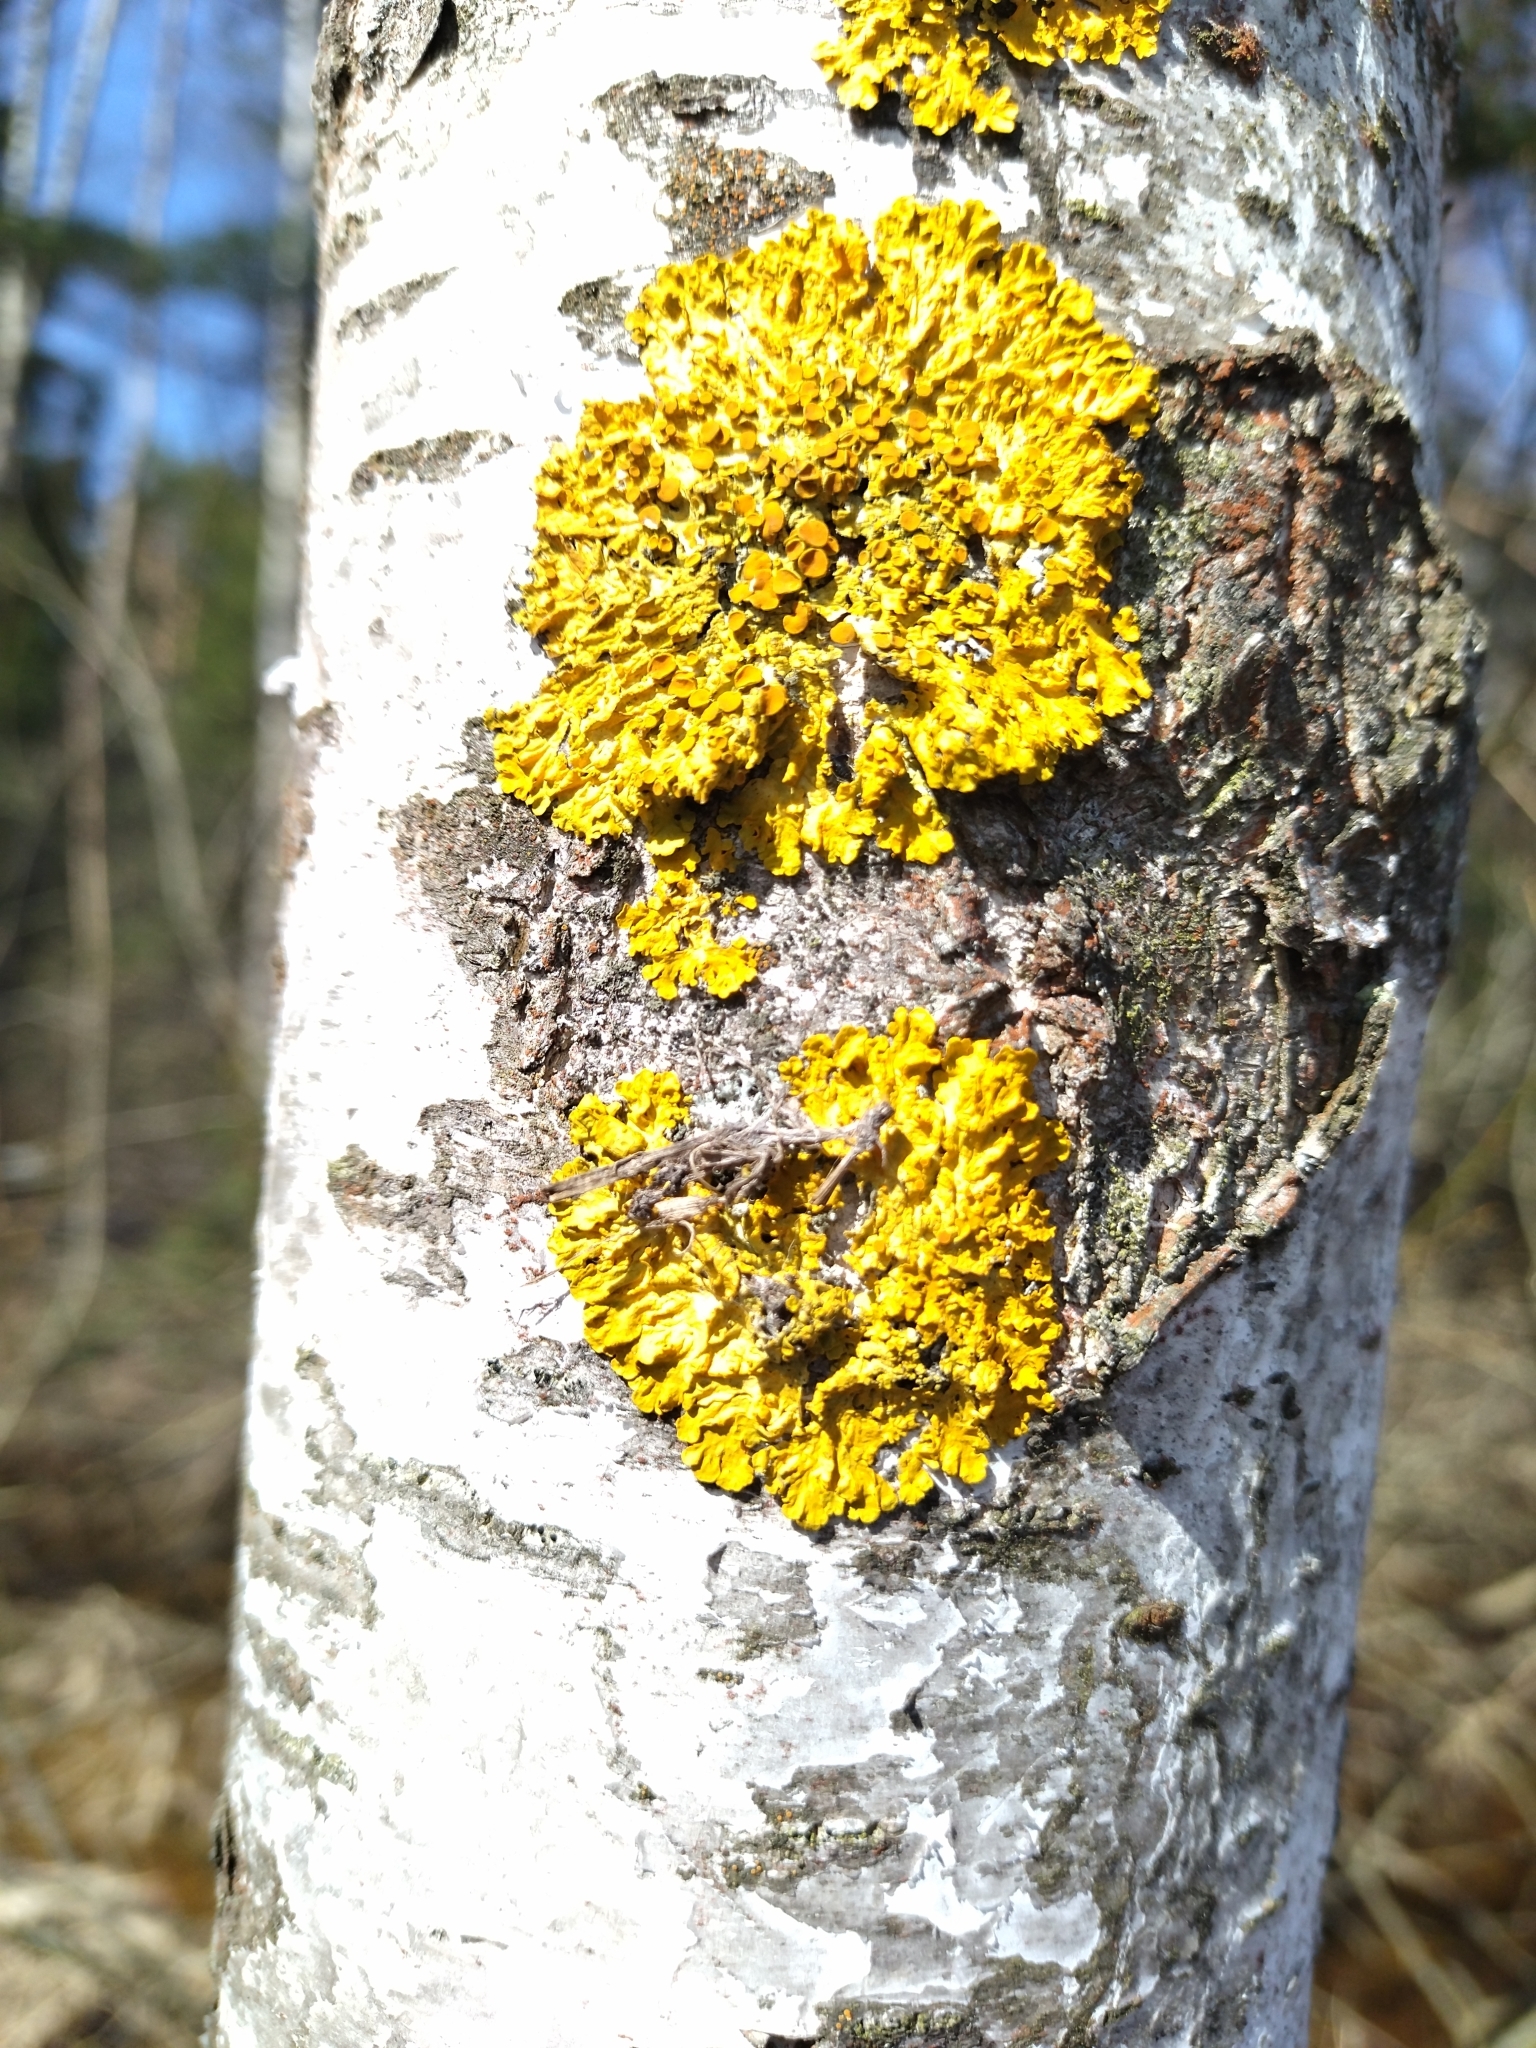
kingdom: Fungi
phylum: Ascomycota
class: Lecanoromycetes
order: Teloschistales
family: Teloschistaceae
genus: Xanthoria
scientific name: Xanthoria parietina
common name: Common orange lichen
